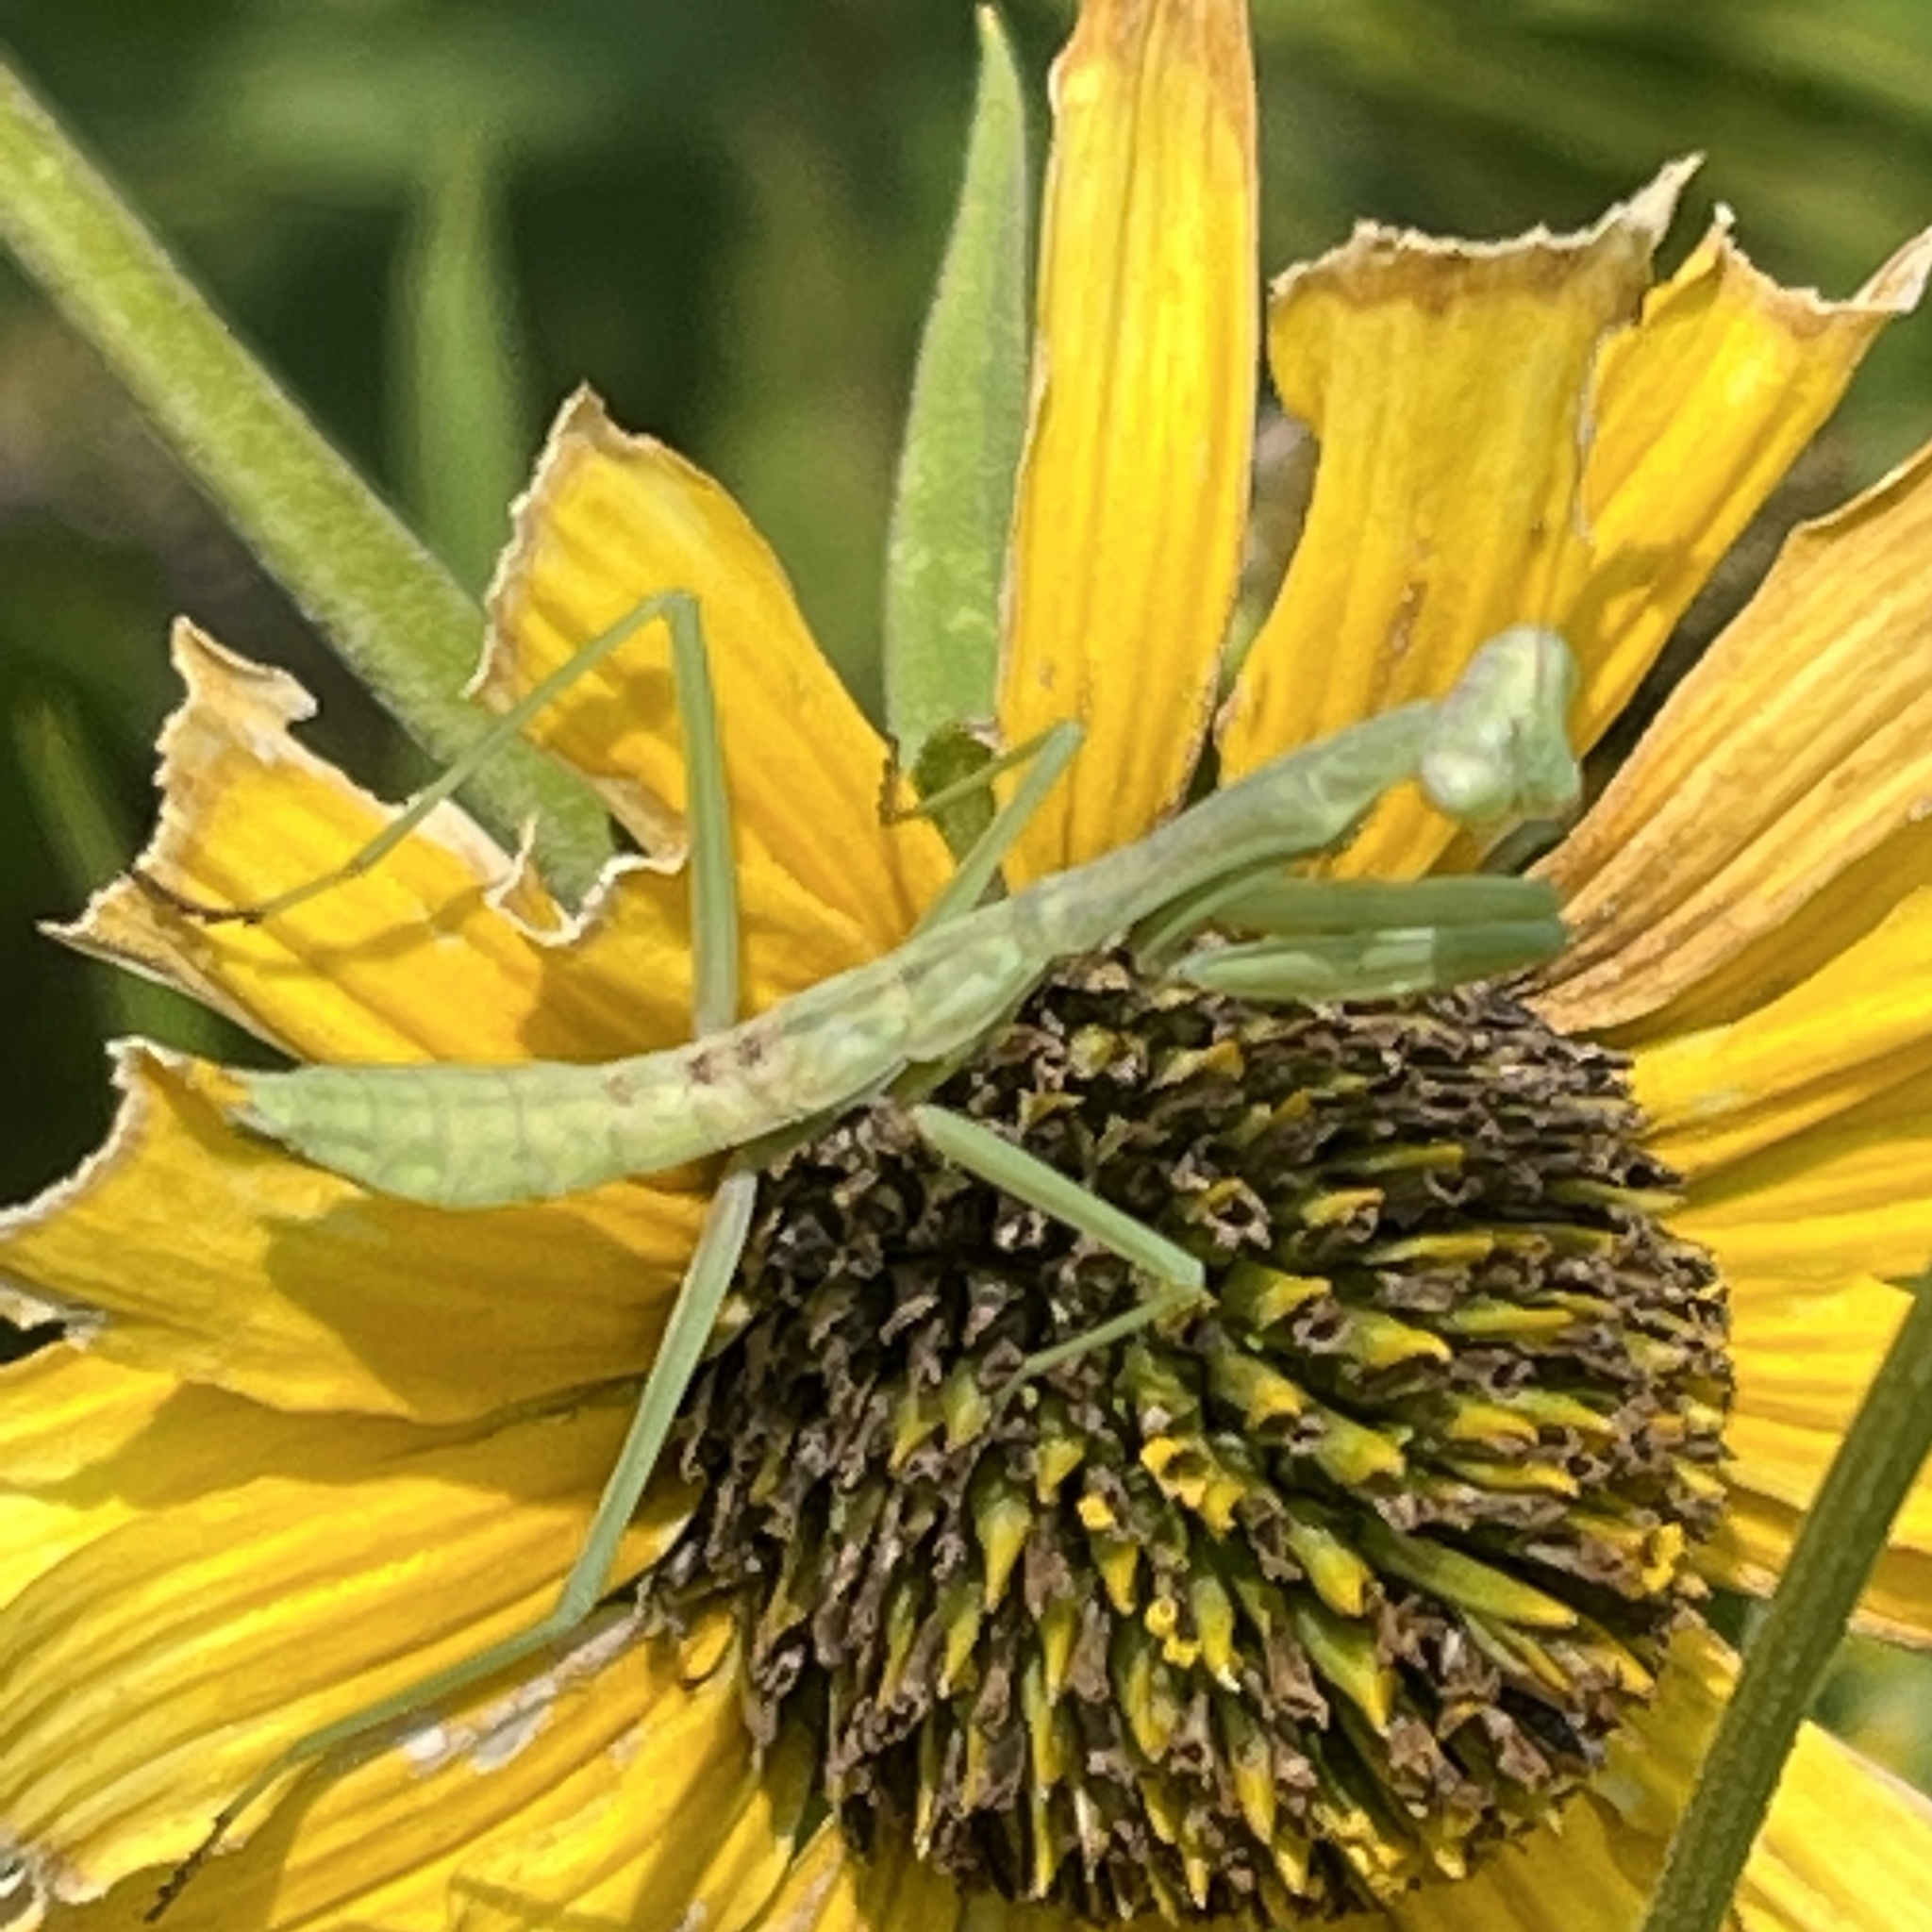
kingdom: Animalia
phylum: Arthropoda
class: Insecta
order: Mantodea
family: Mantidae
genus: Stagmomantis
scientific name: Stagmomantis carolina
